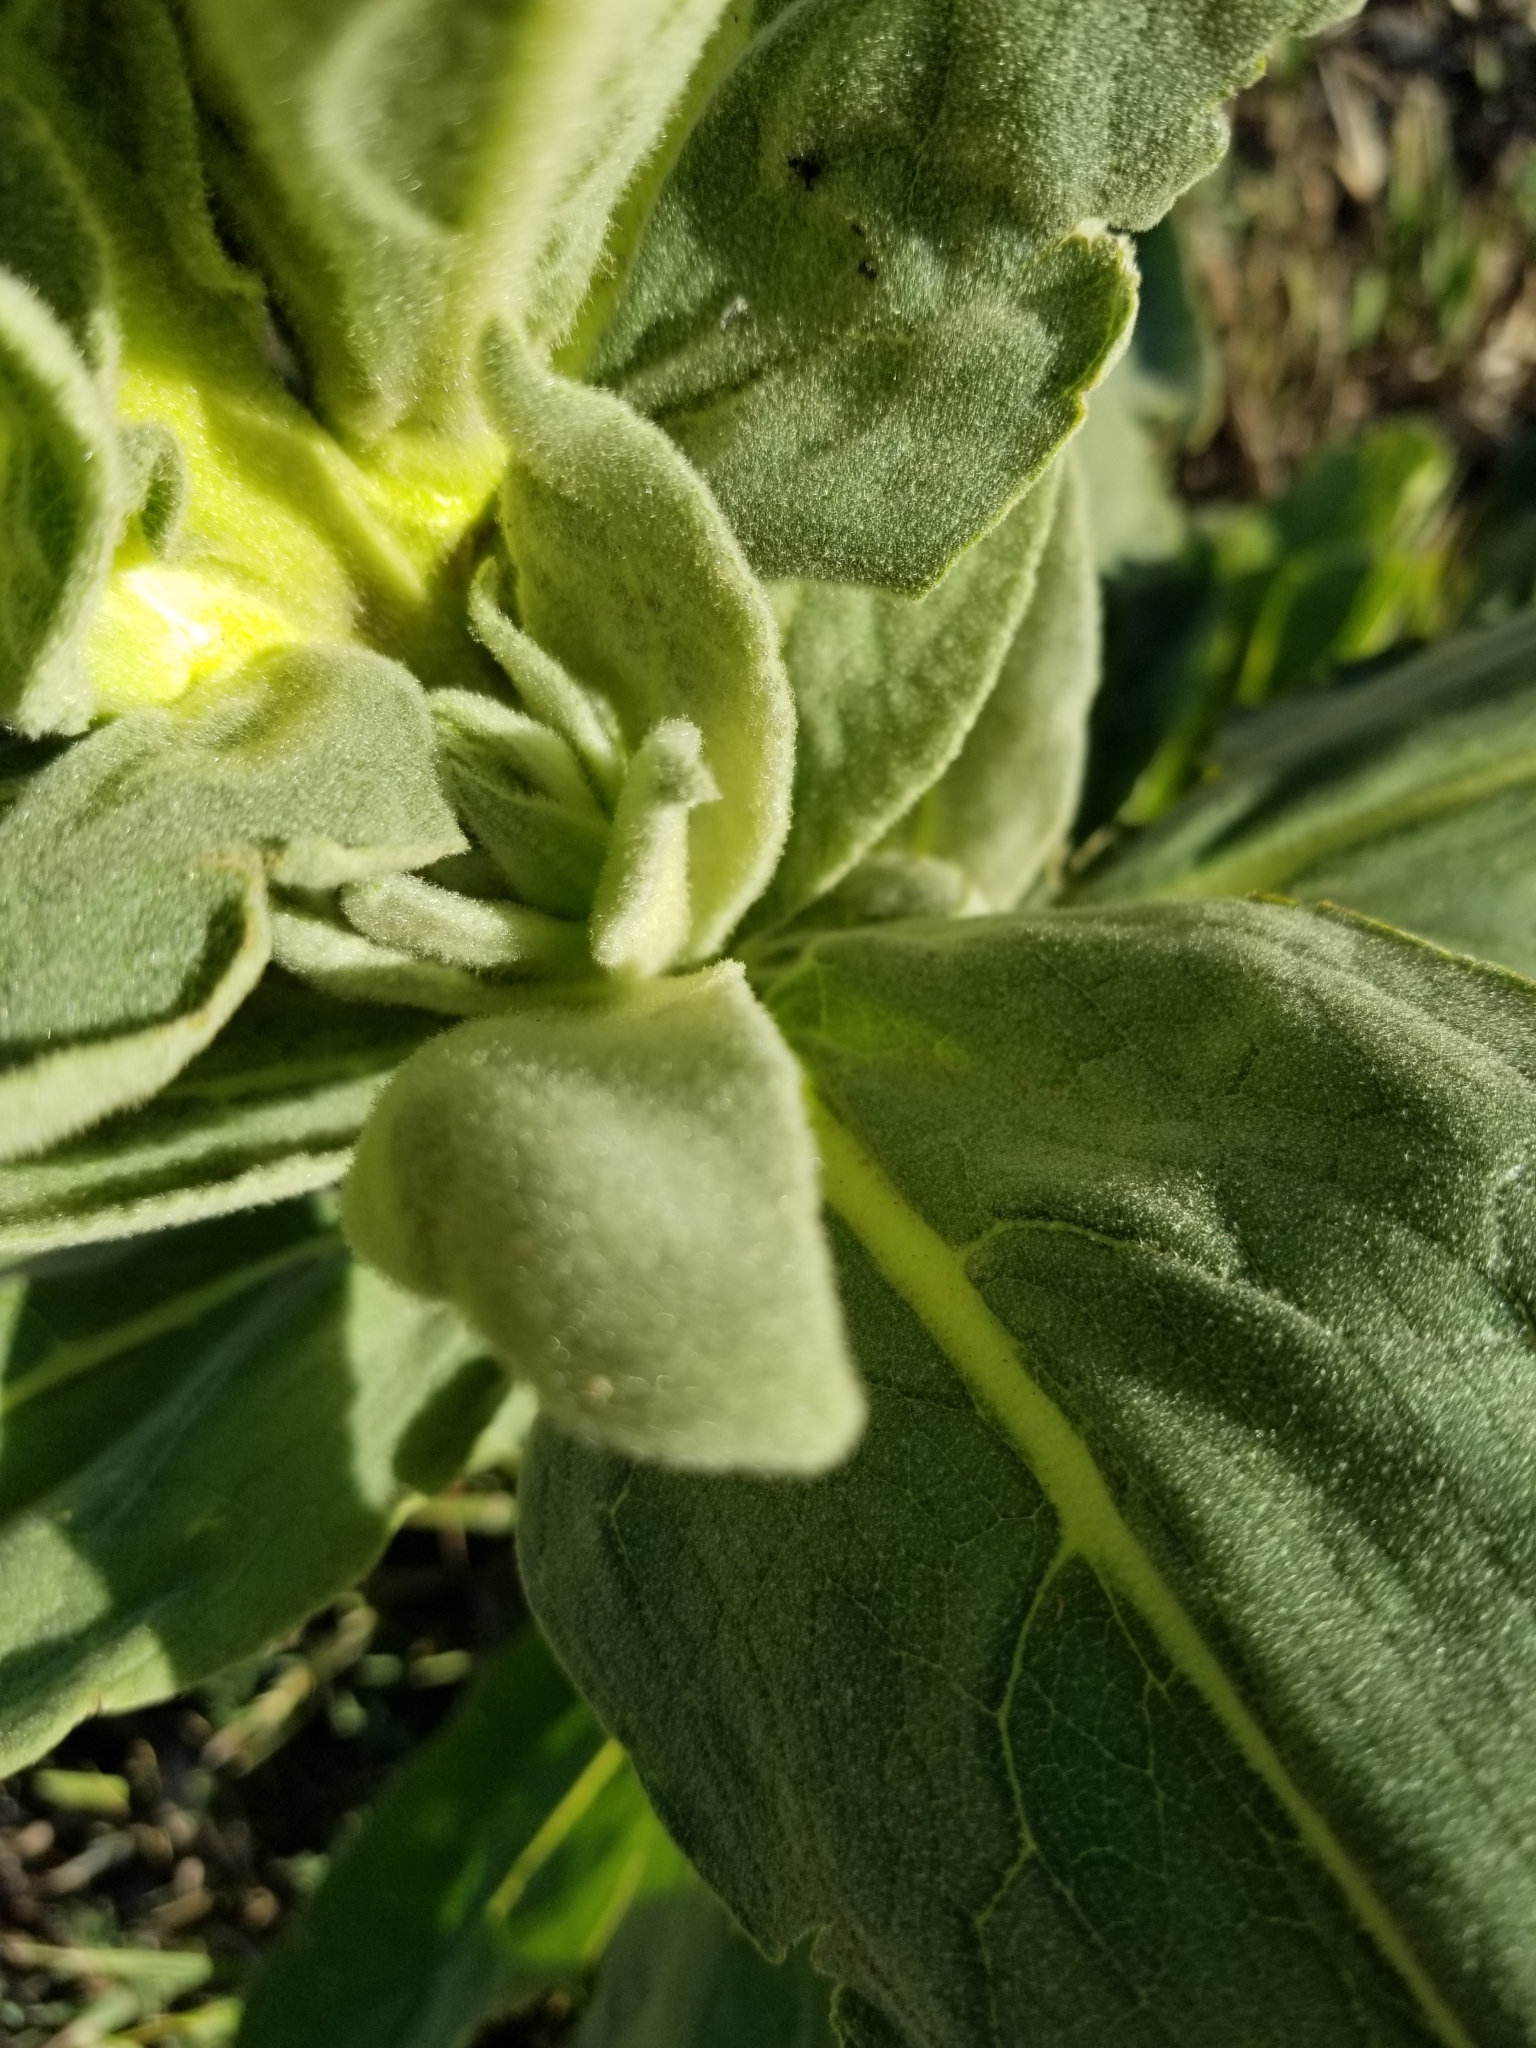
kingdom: Plantae
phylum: Tracheophyta
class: Magnoliopsida
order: Lamiales
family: Scrophulariaceae
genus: Verbascum
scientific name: Verbascum thapsus
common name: Common mullein
